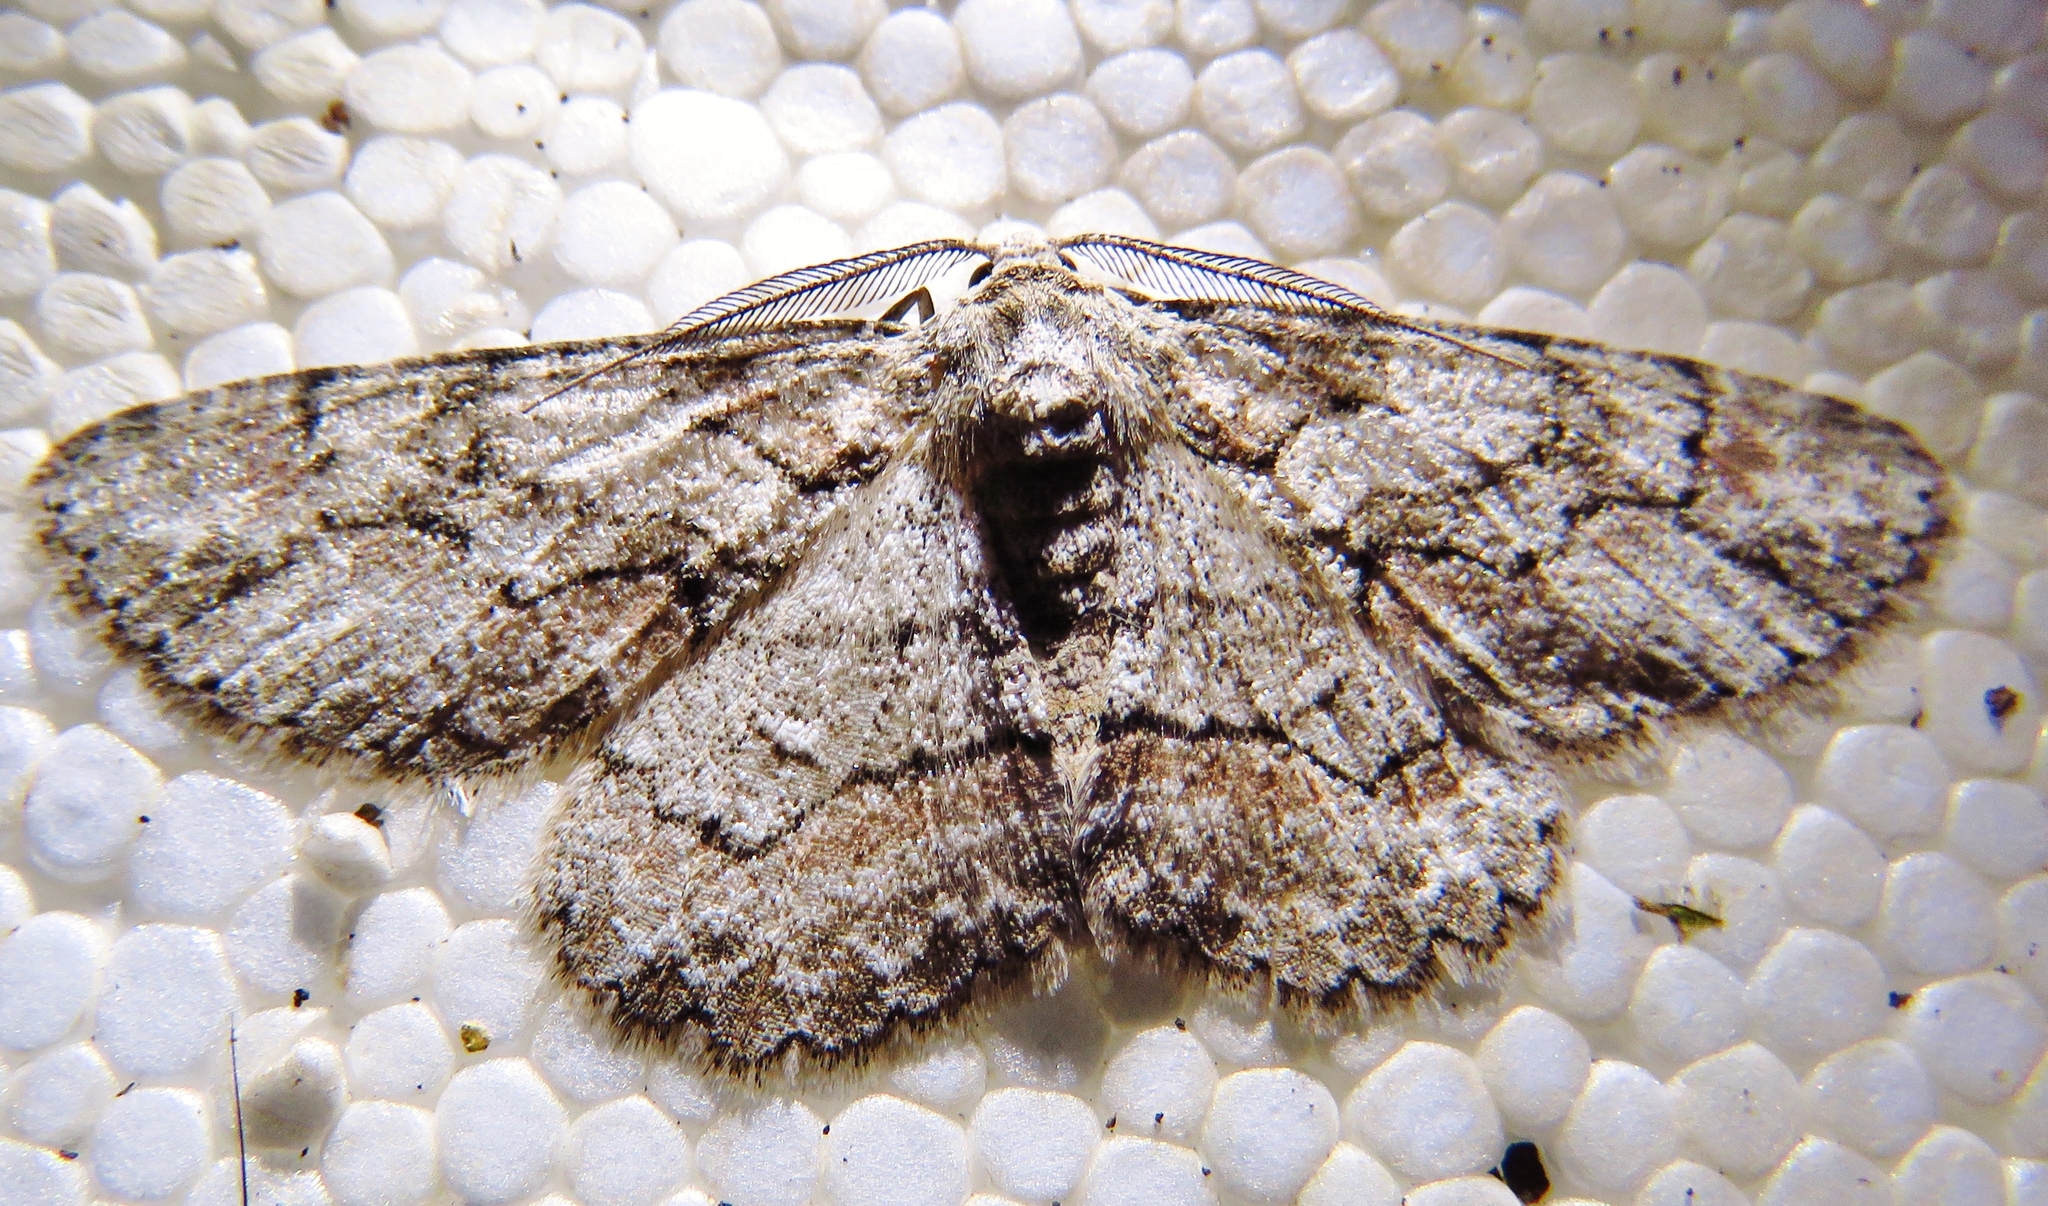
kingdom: Animalia
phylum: Arthropoda
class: Insecta
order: Lepidoptera
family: Geometridae
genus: Iridopsis
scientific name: Iridopsis defectaria
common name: Brown-shaded gray
